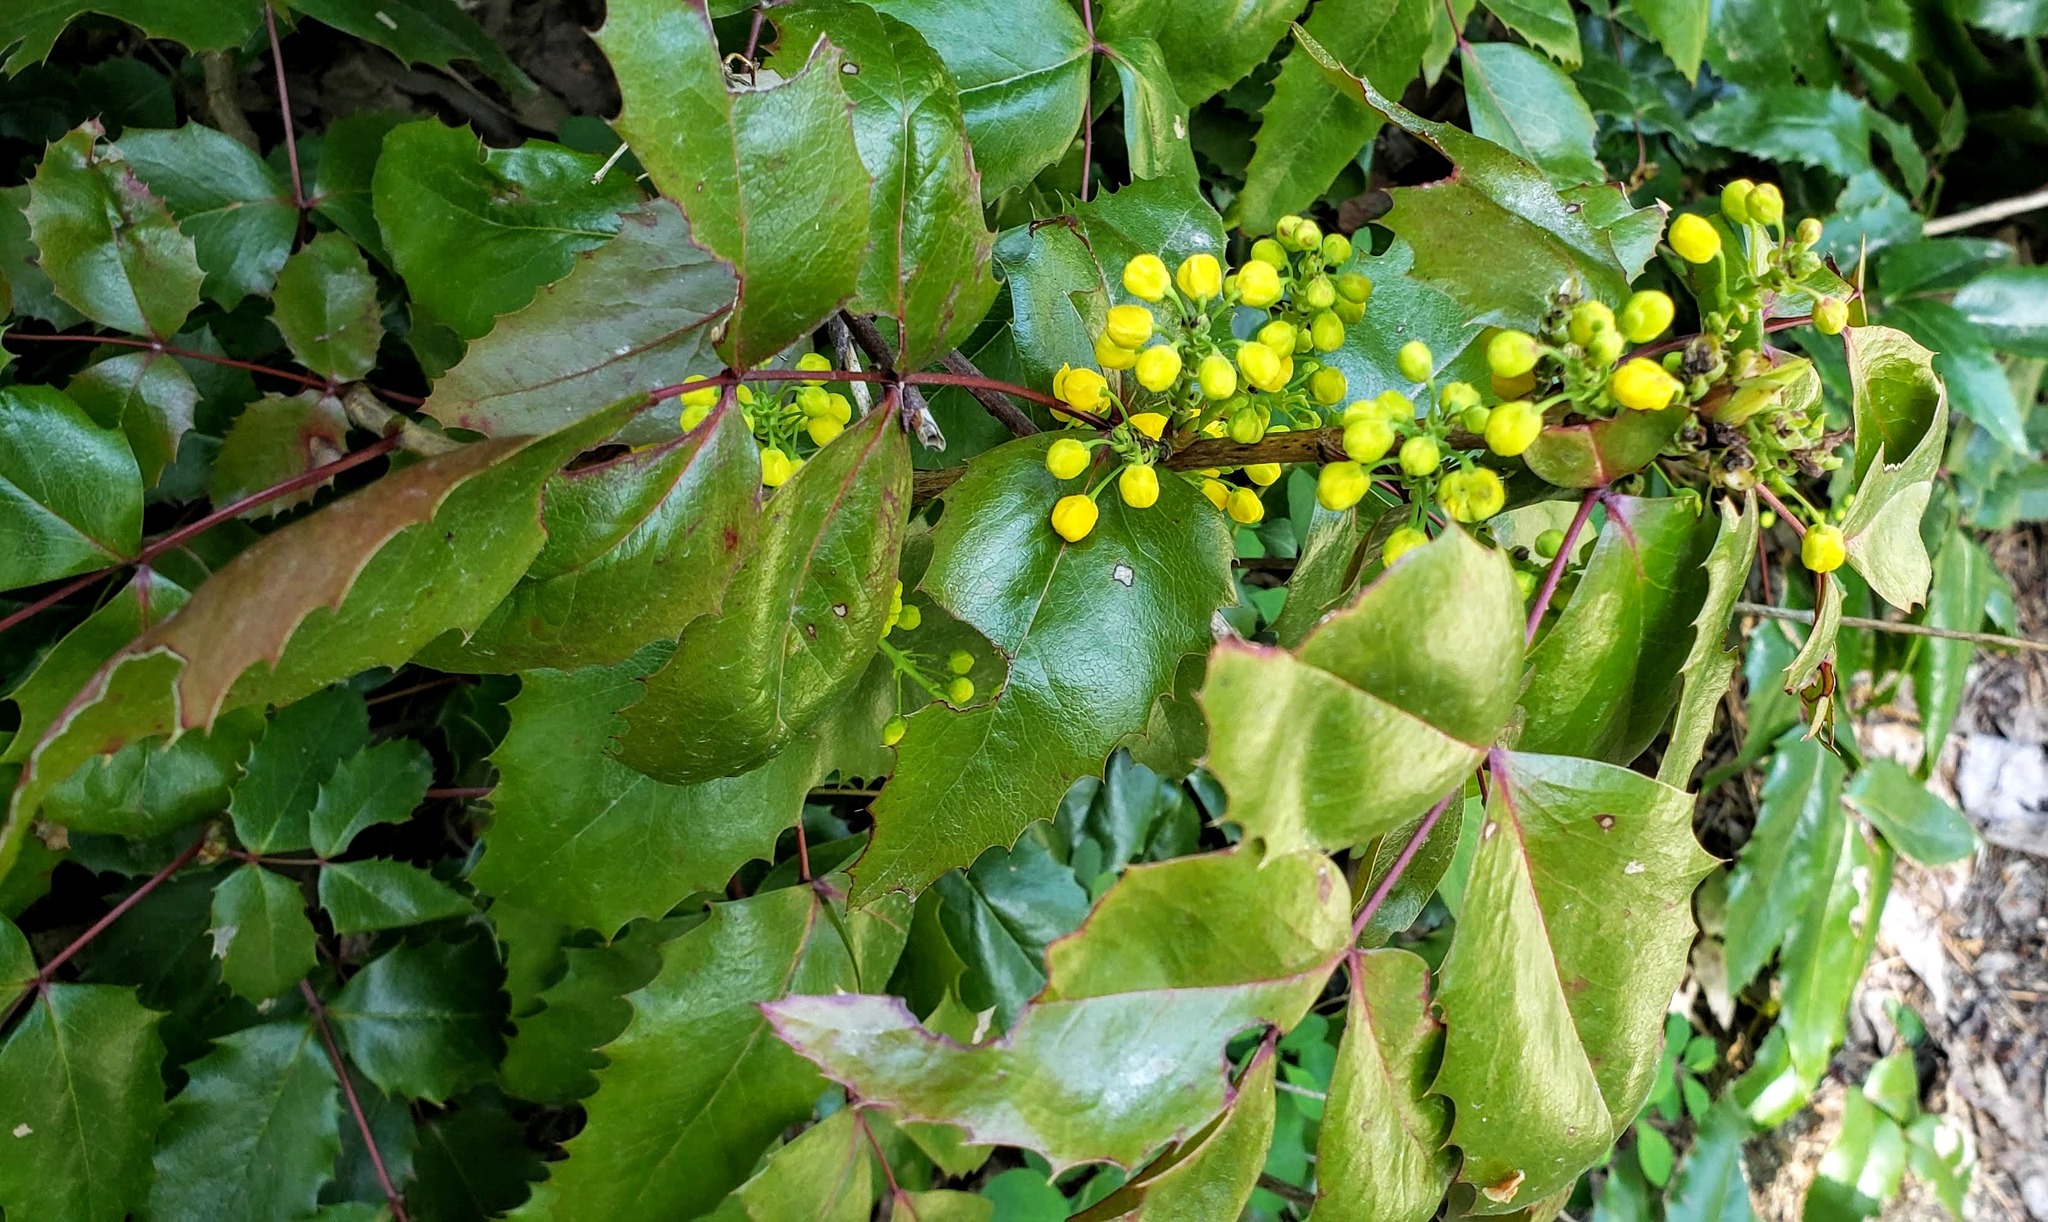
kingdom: Plantae
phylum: Tracheophyta
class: Magnoliopsida
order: Ranunculales
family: Berberidaceae
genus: Mahonia
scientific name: Mahonia aquifolium
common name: Oregon-grape
